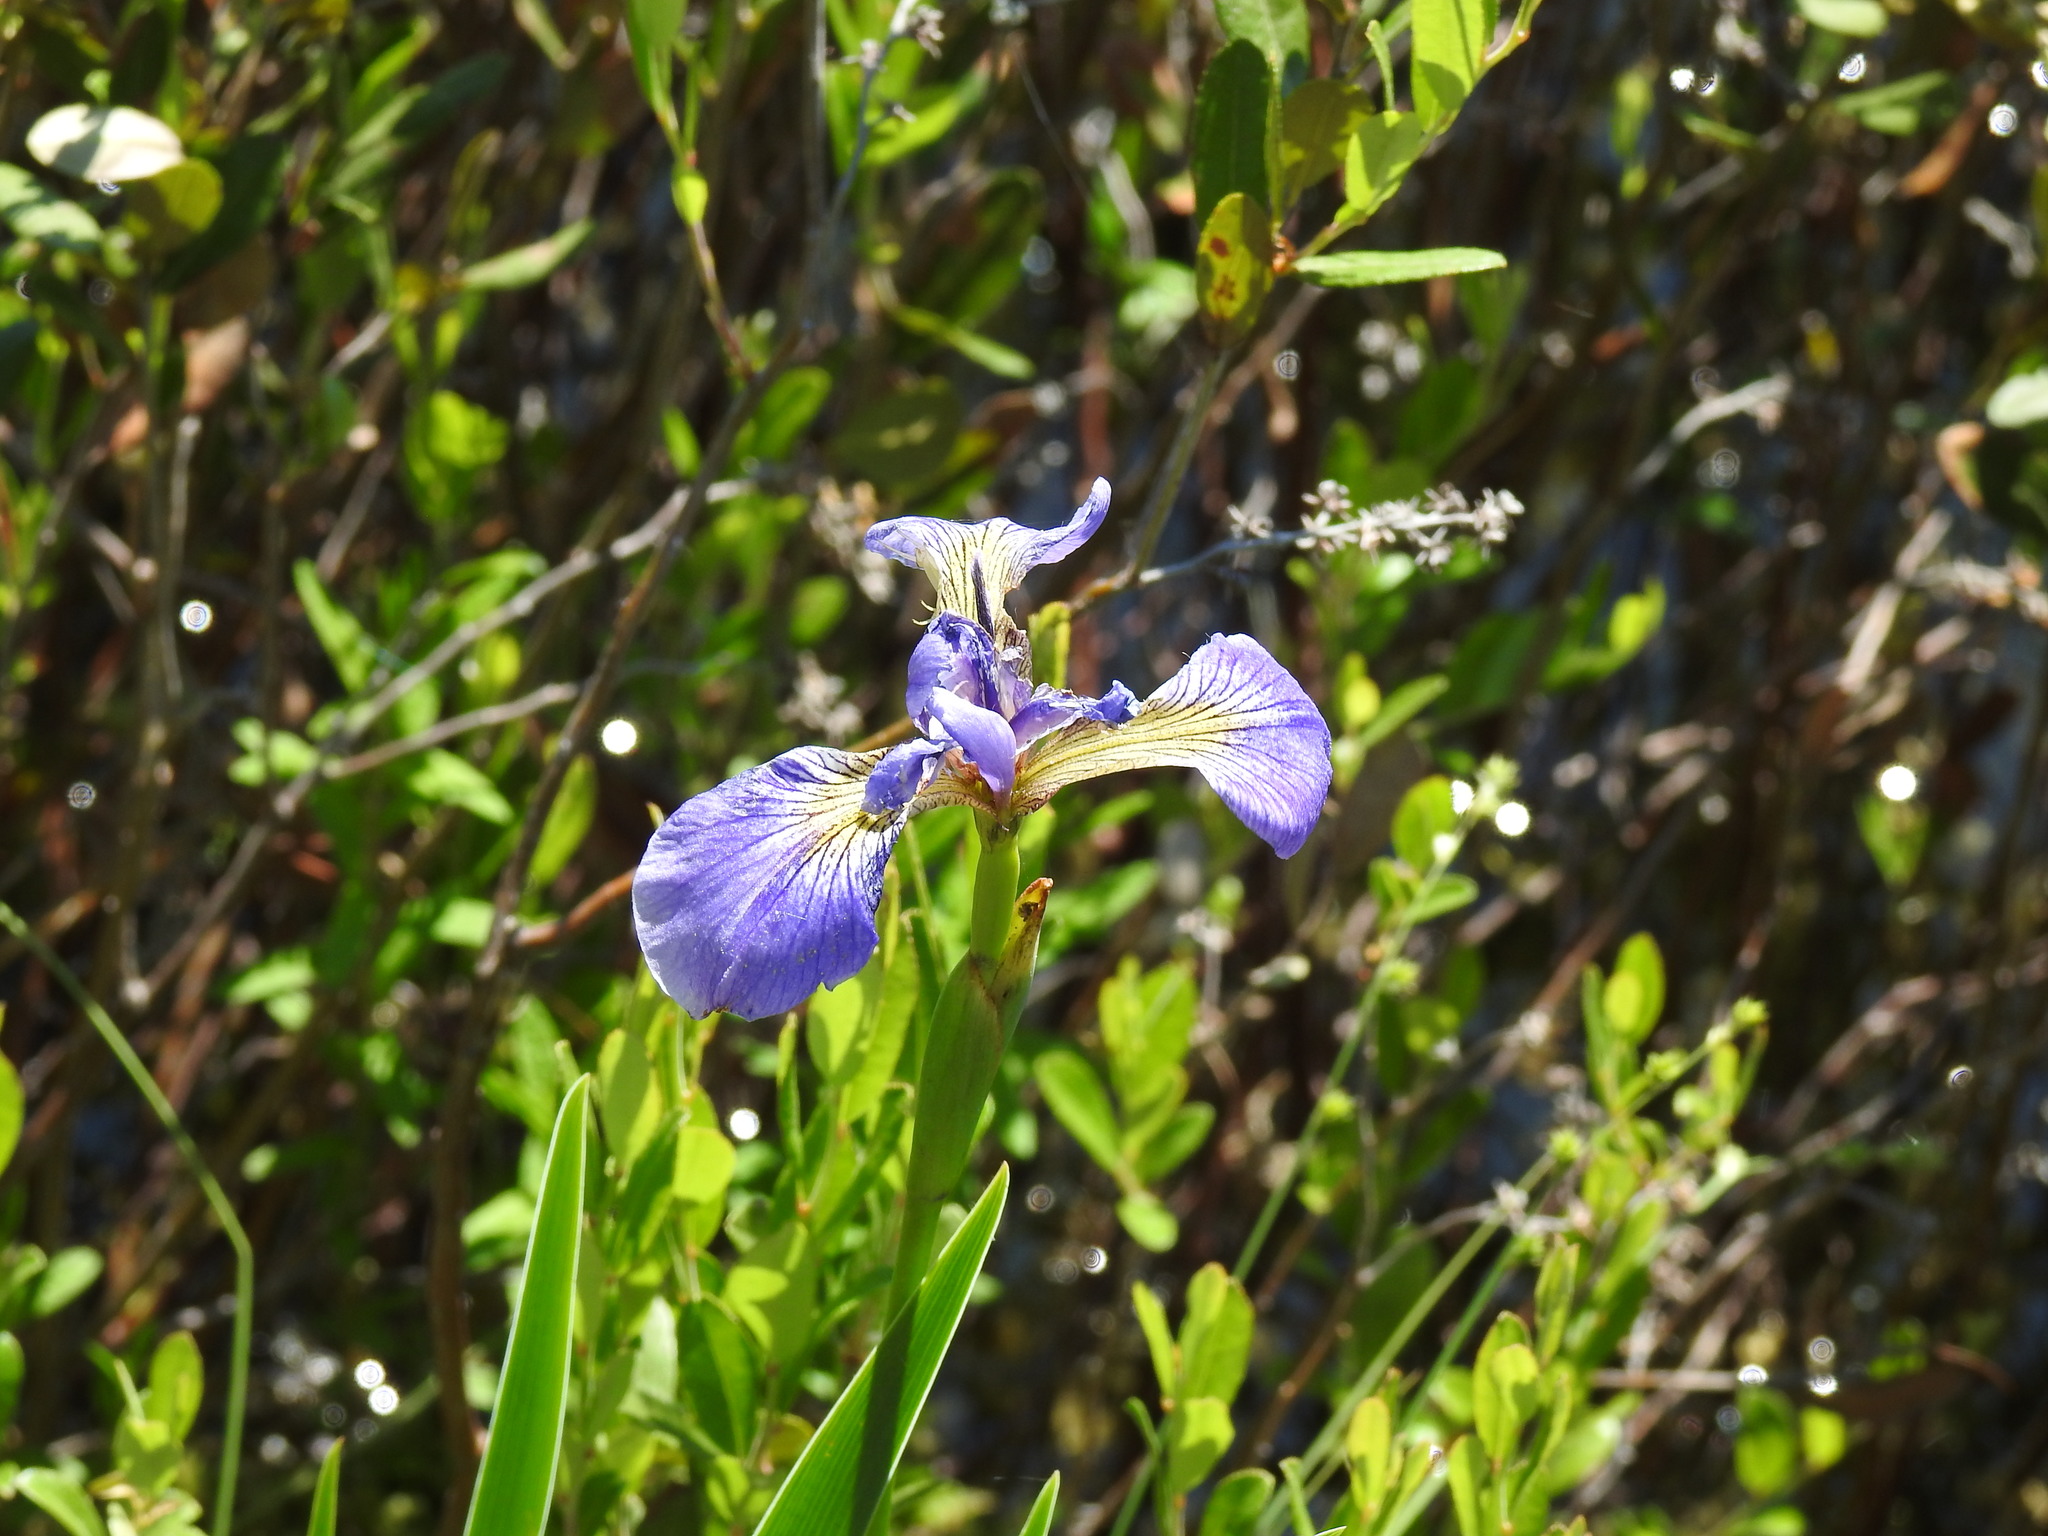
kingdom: Plantae
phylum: Tracheophyta
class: Liliopsida
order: Asparagales
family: Iridaceae
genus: Iris
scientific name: Iris versicolor
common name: Purple iris
